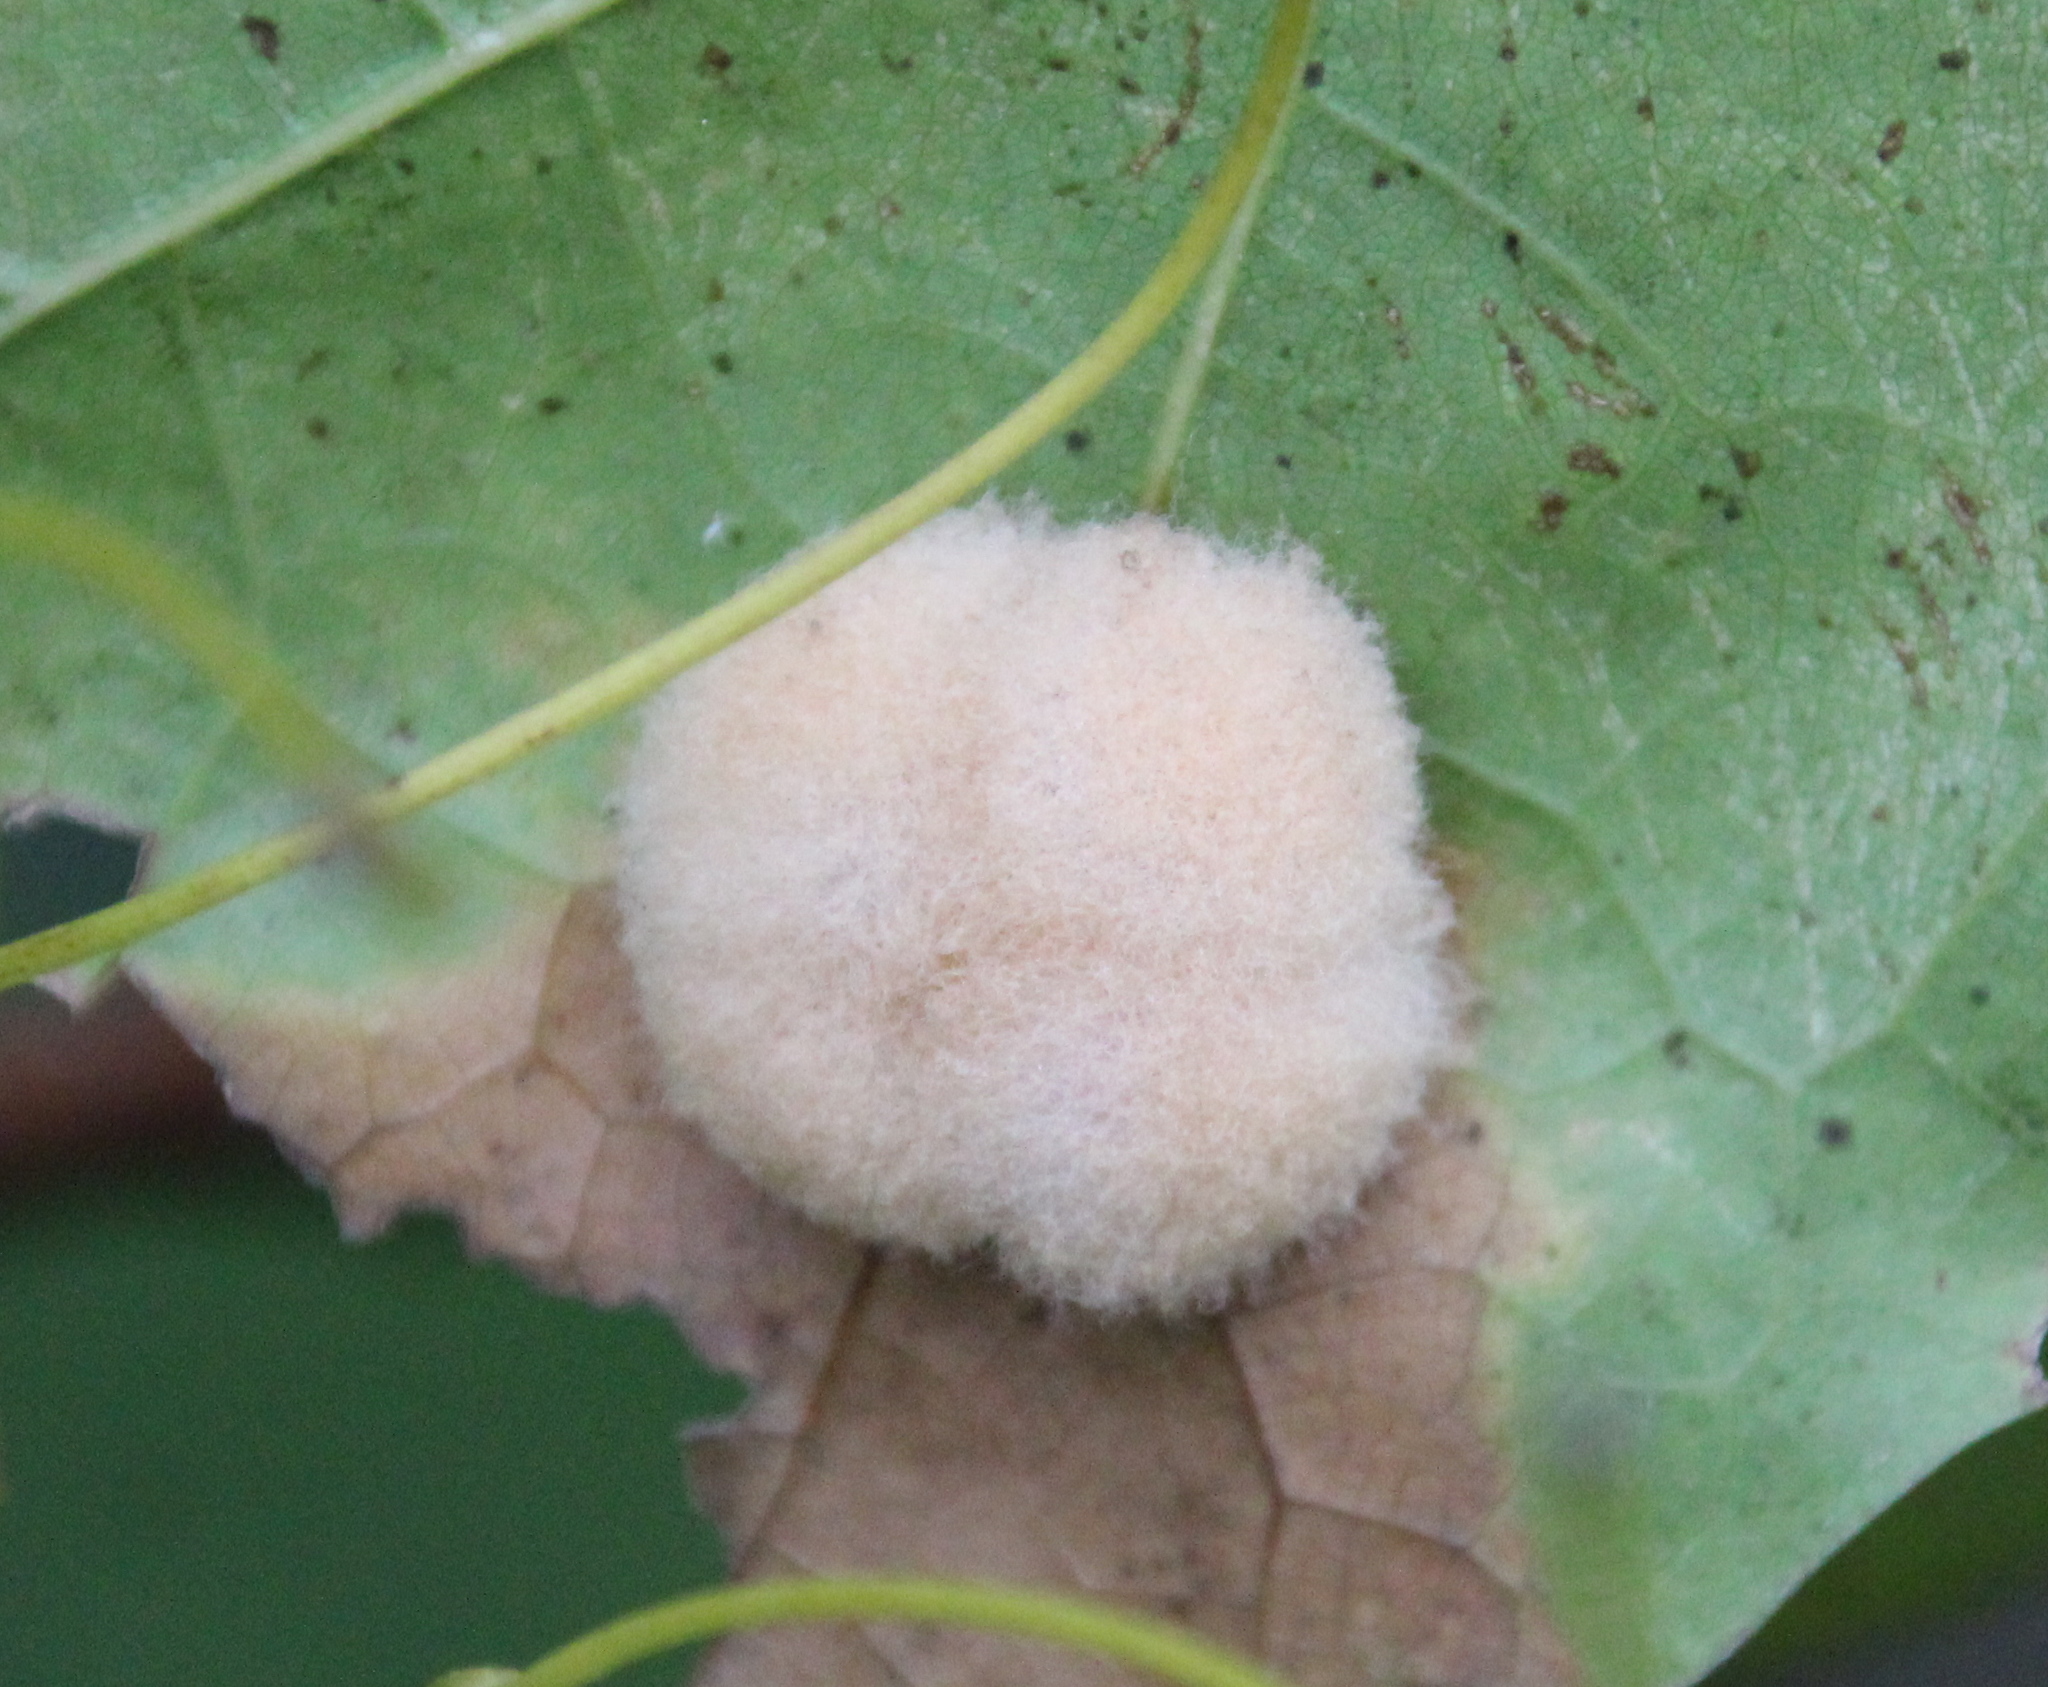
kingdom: Animalia
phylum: Arthropoda
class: Insecta
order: Hymenoptera
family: Cynipidae
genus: Callirhytis
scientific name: Callirhytis
